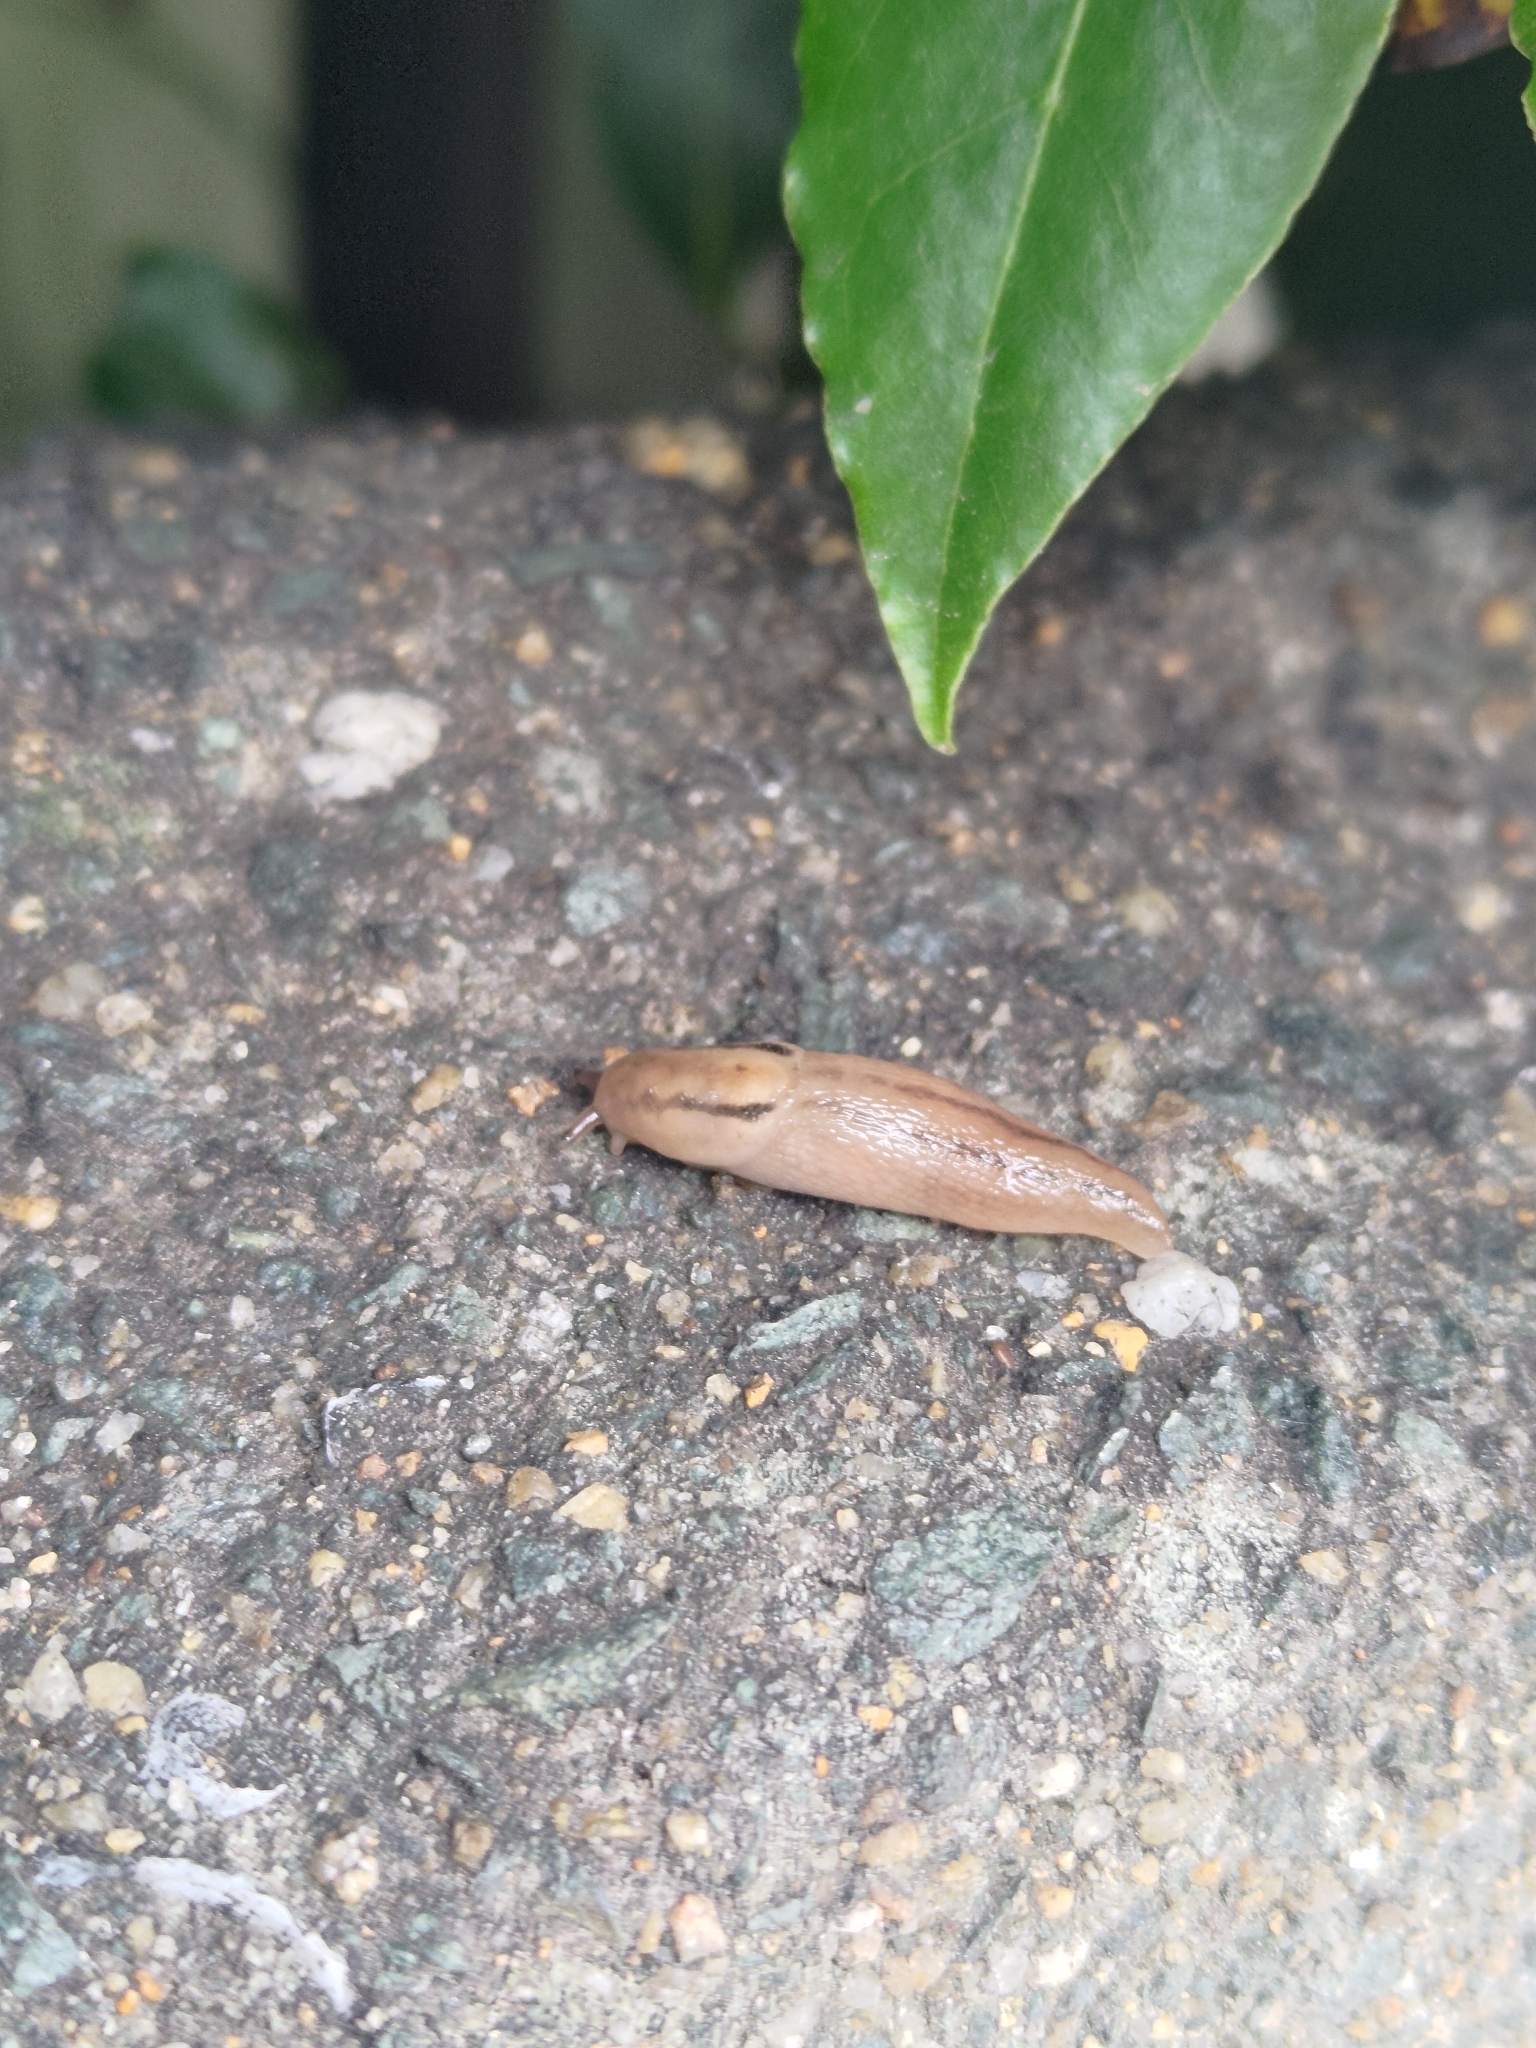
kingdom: Animalia
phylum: Mollusca
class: Gastropoda
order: Stylommatophora
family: Limacidae
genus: Ambigolimax
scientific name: Ambigolimax valentianus
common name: Greenhouse slug
